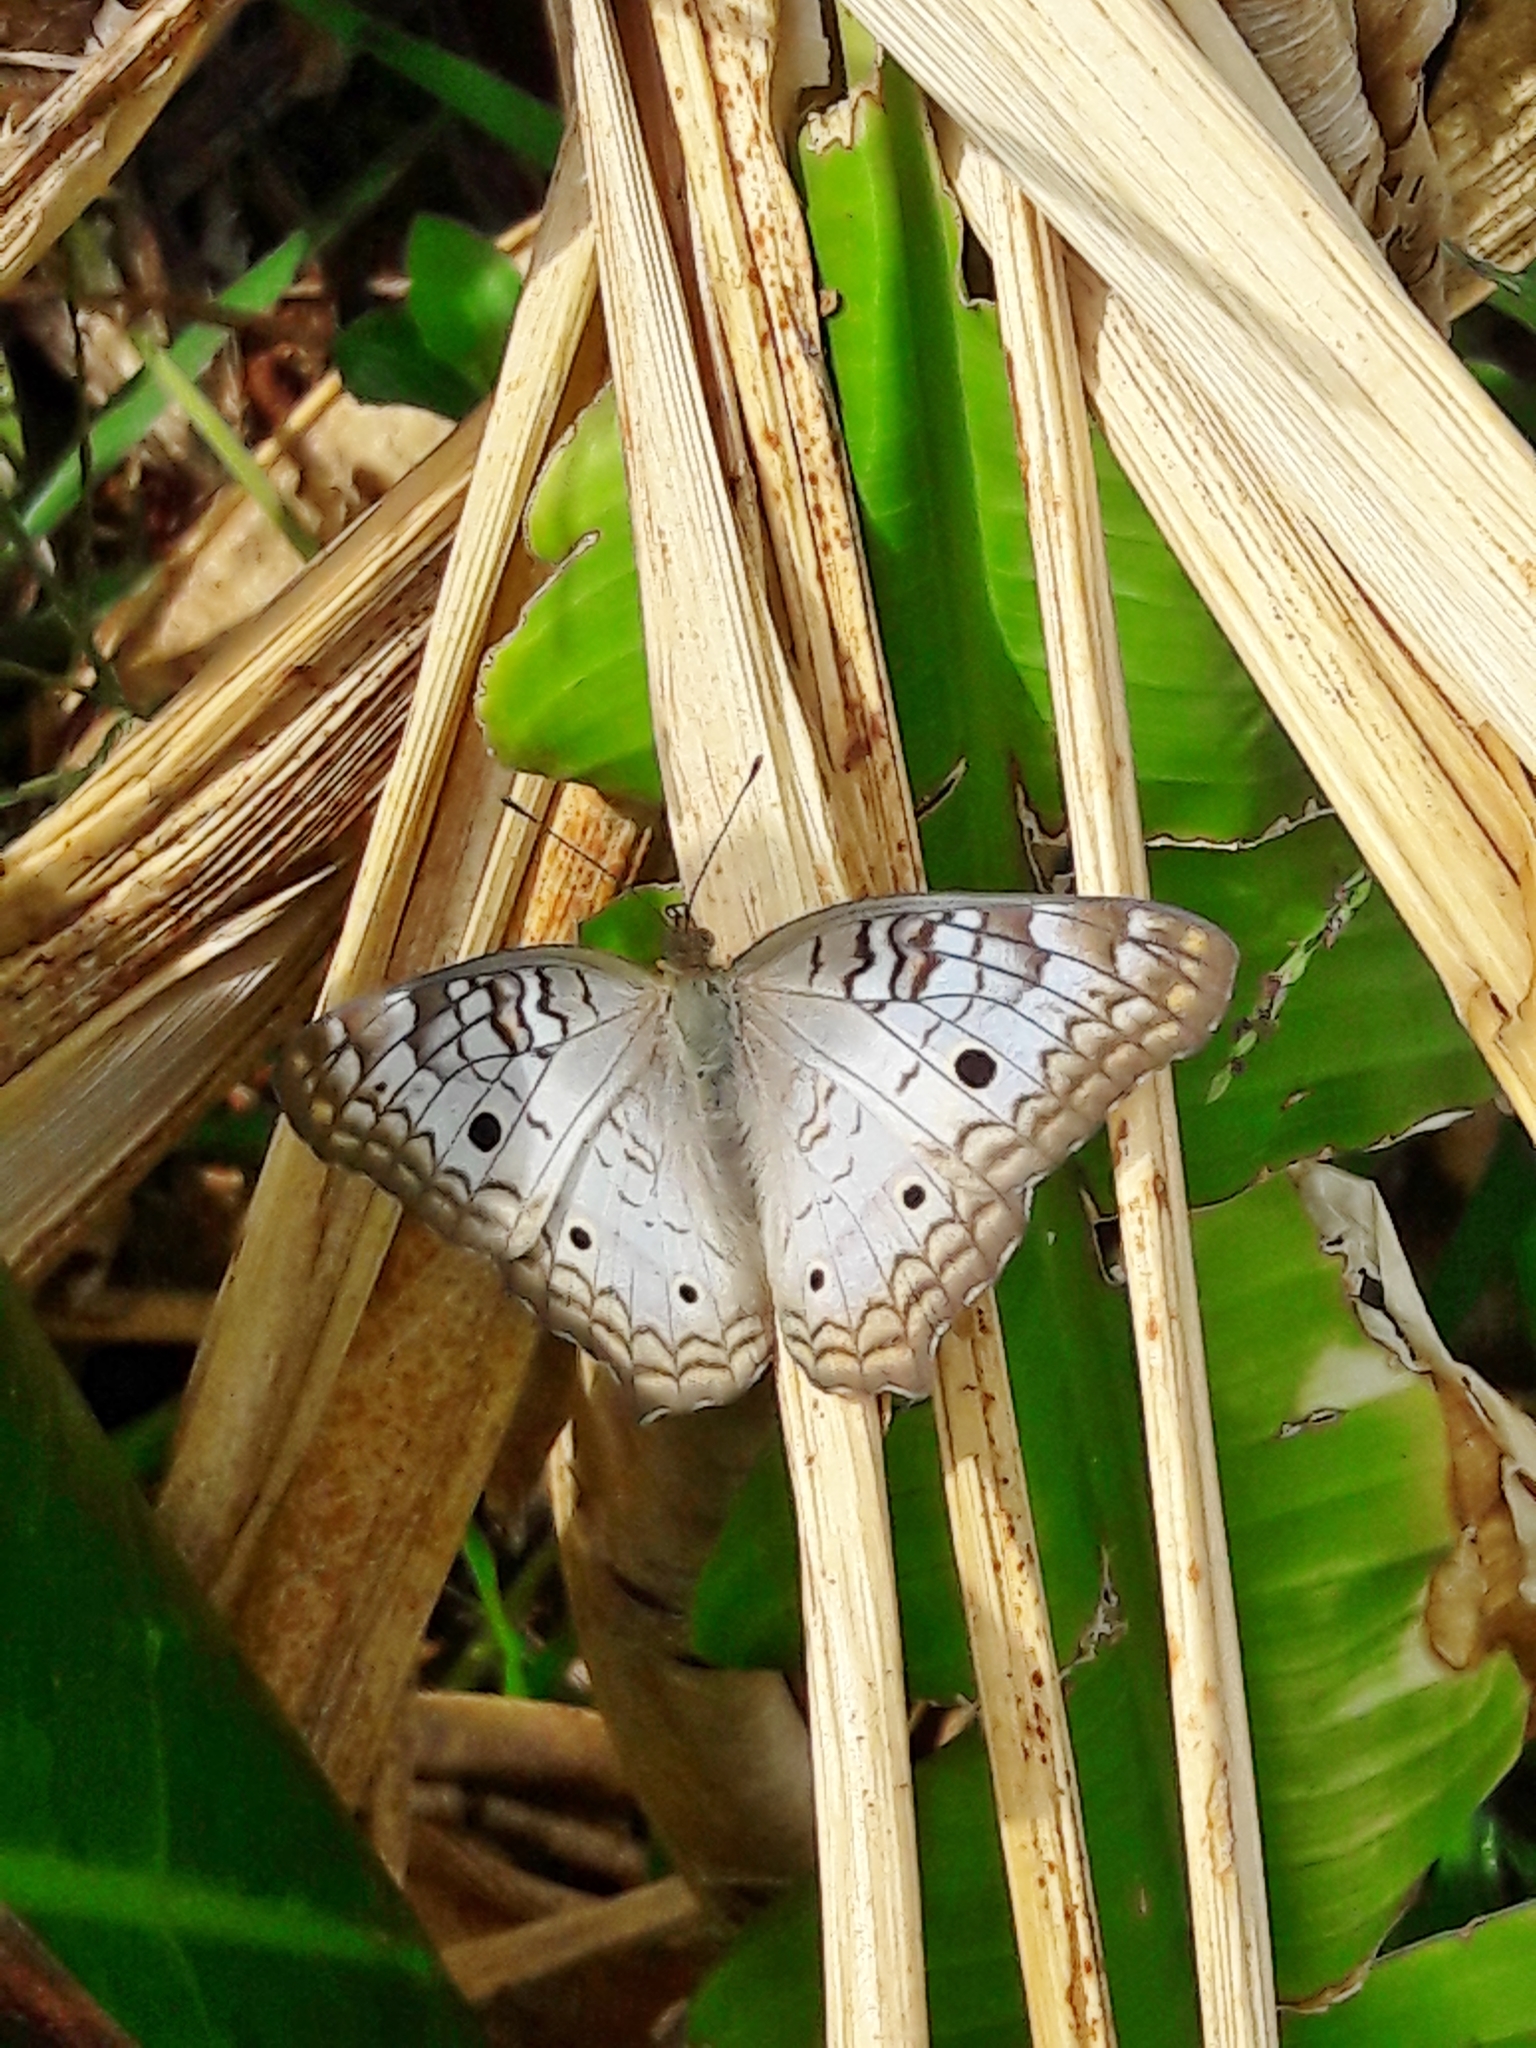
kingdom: Animalia
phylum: Arthropoda
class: Insecta
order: Lepidoptera
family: Nymphalidae
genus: Anartia
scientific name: Anartia jatrophae
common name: White peacock
